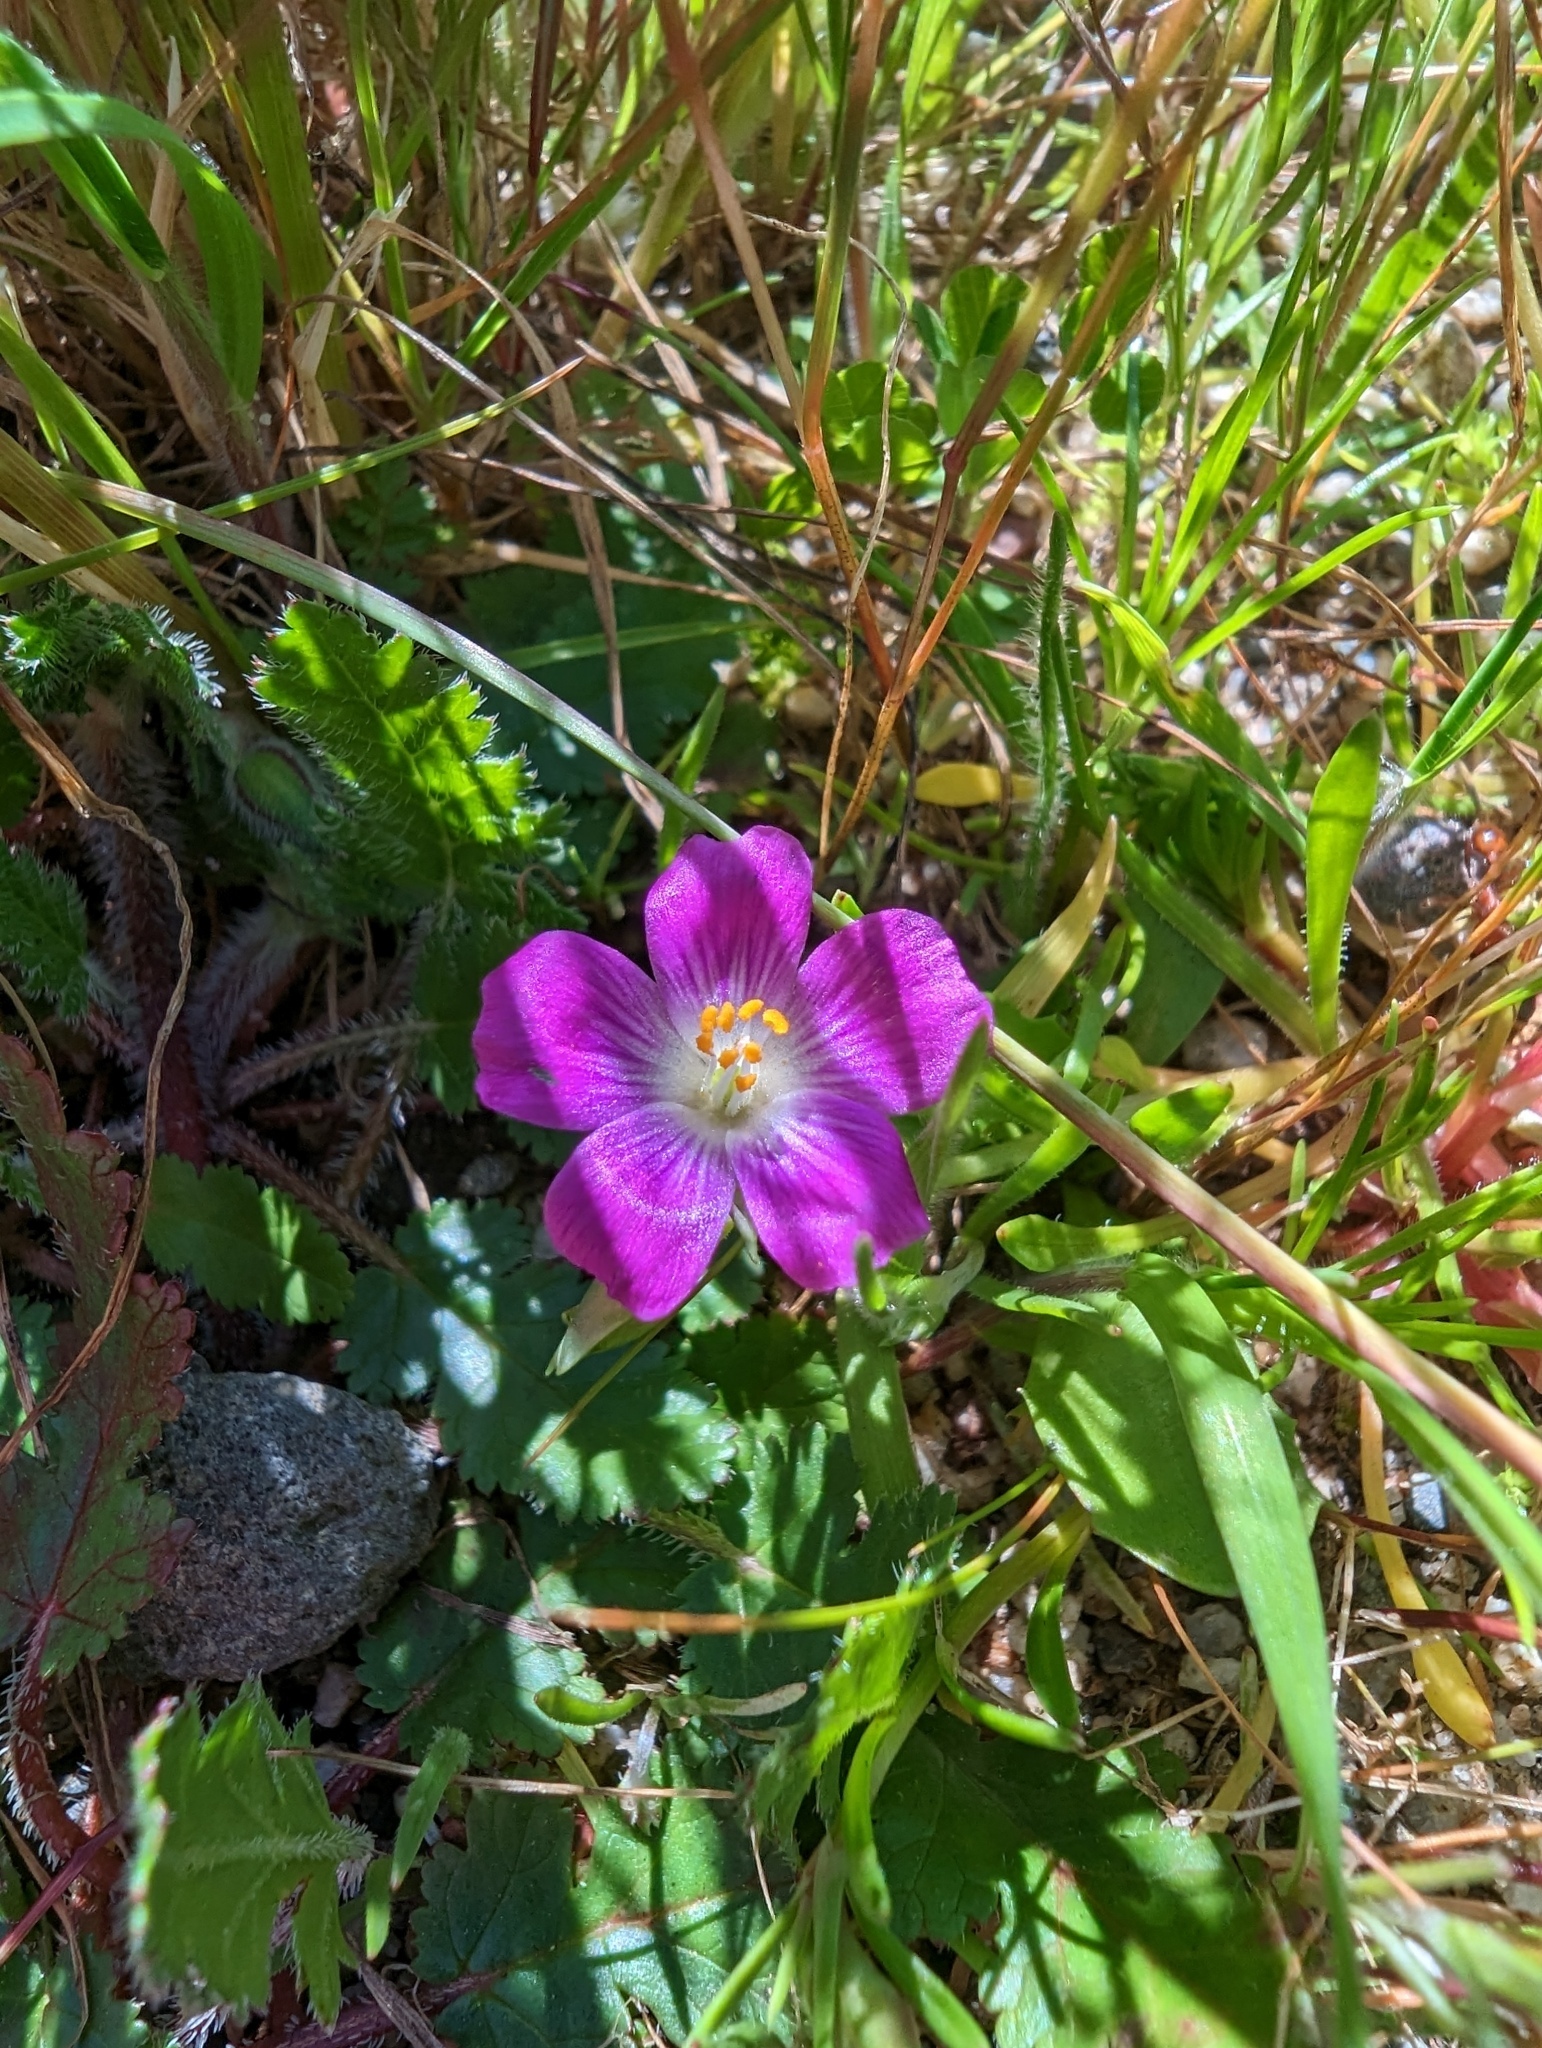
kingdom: Plantae
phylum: Tracheophyta
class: Magnoliopsida
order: Caryophyllales
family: Montiaceae
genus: Calandrinia
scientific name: Calandrinia menziesii
